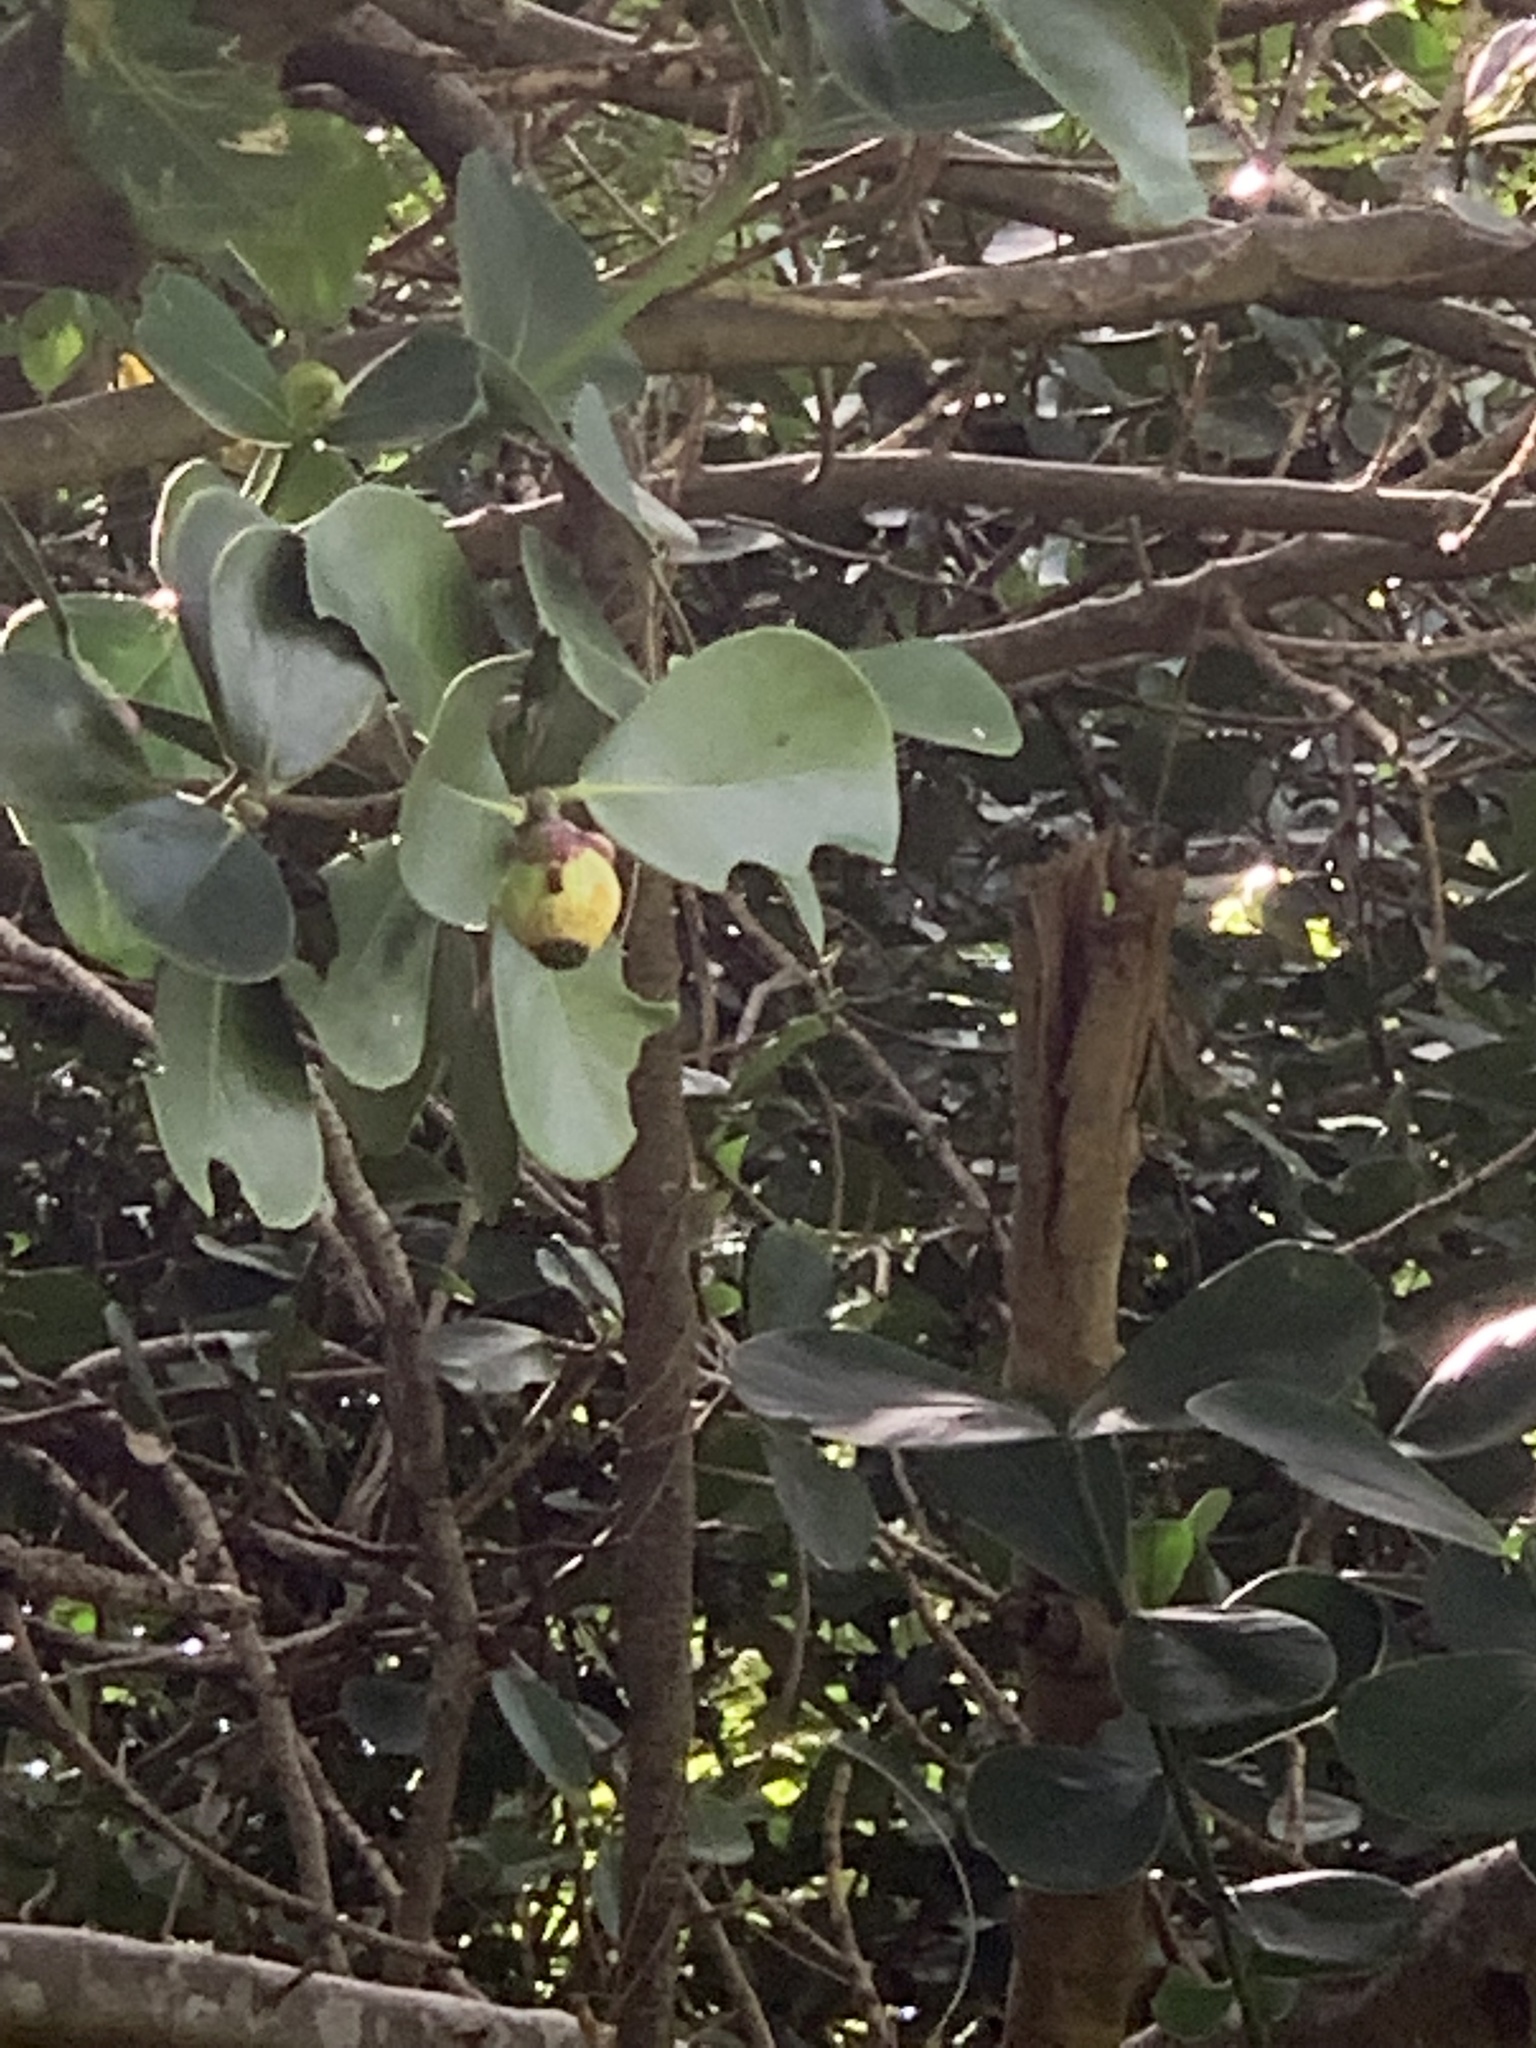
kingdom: Plantae
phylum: Tracheophyta
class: Magnoliopsida
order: Malpighiales
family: Clusiaceae
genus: Clusia
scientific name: Clusia rosea
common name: Scotch attorney
